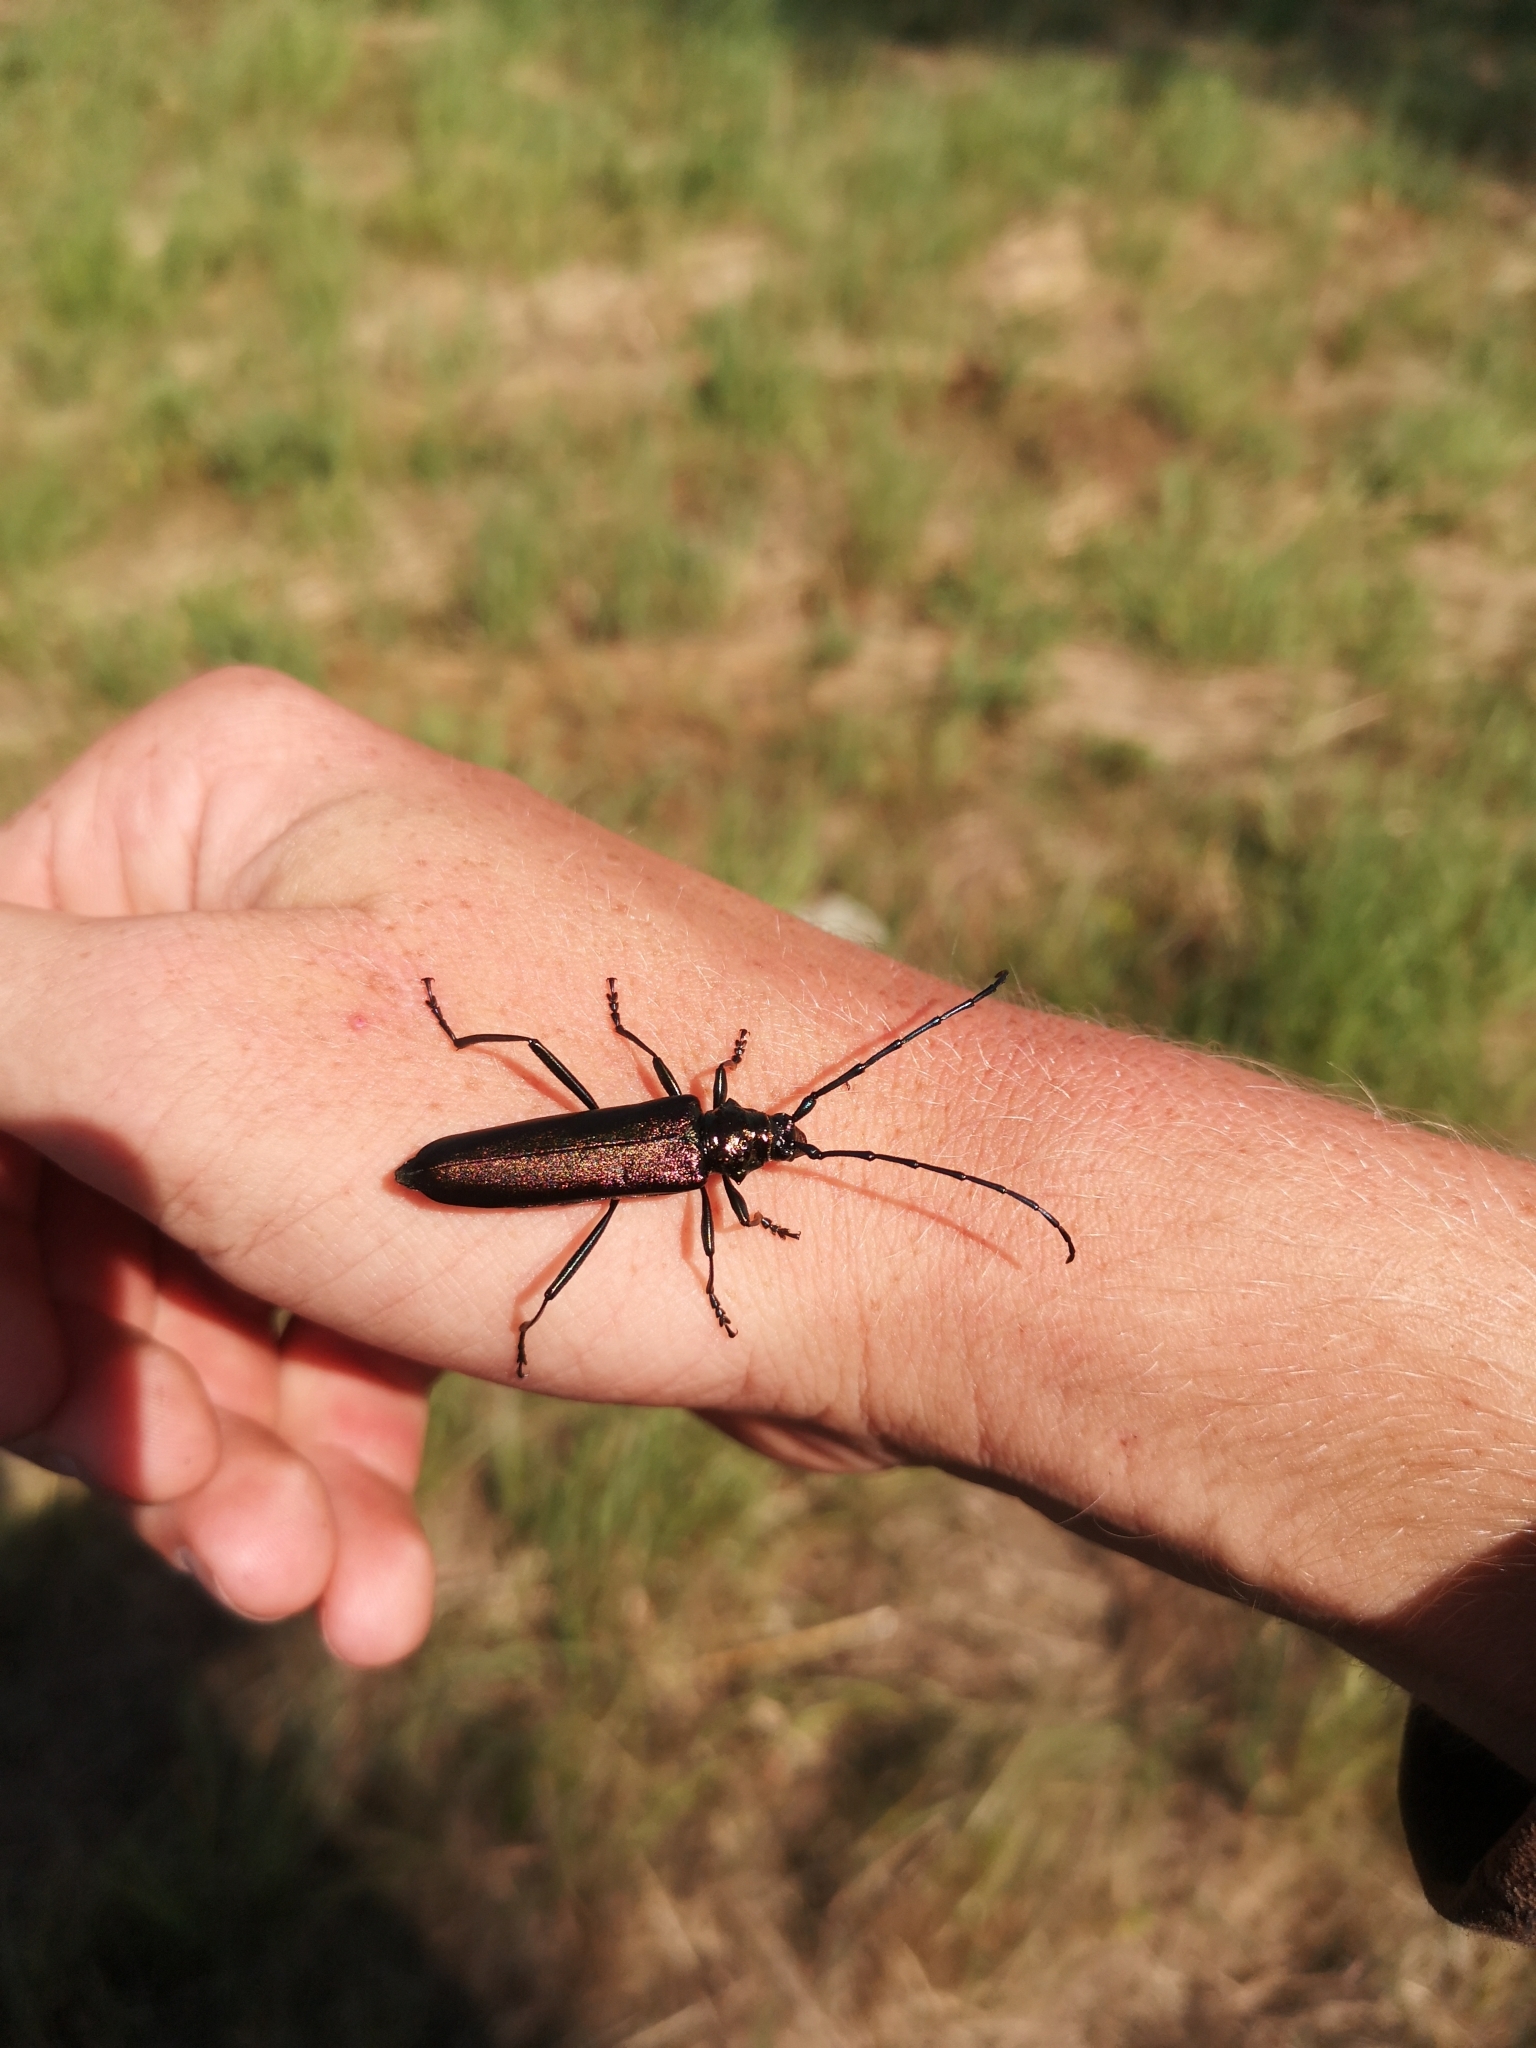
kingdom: Animalia
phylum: Arthropoda
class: Insecta
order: Coleoptera
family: Cerambycidae
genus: Aromia
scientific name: Aromia moschata
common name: Musk beetle
